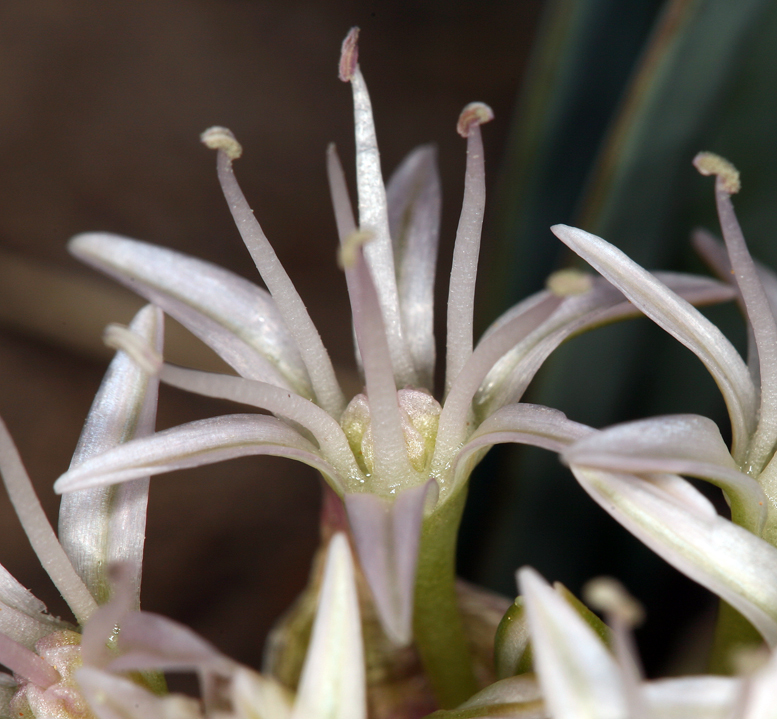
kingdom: Plantae
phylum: Tracheophyta
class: Liliopsida
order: Asparagales
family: Amaryllidaceae
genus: Allium
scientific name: Allium anceps
